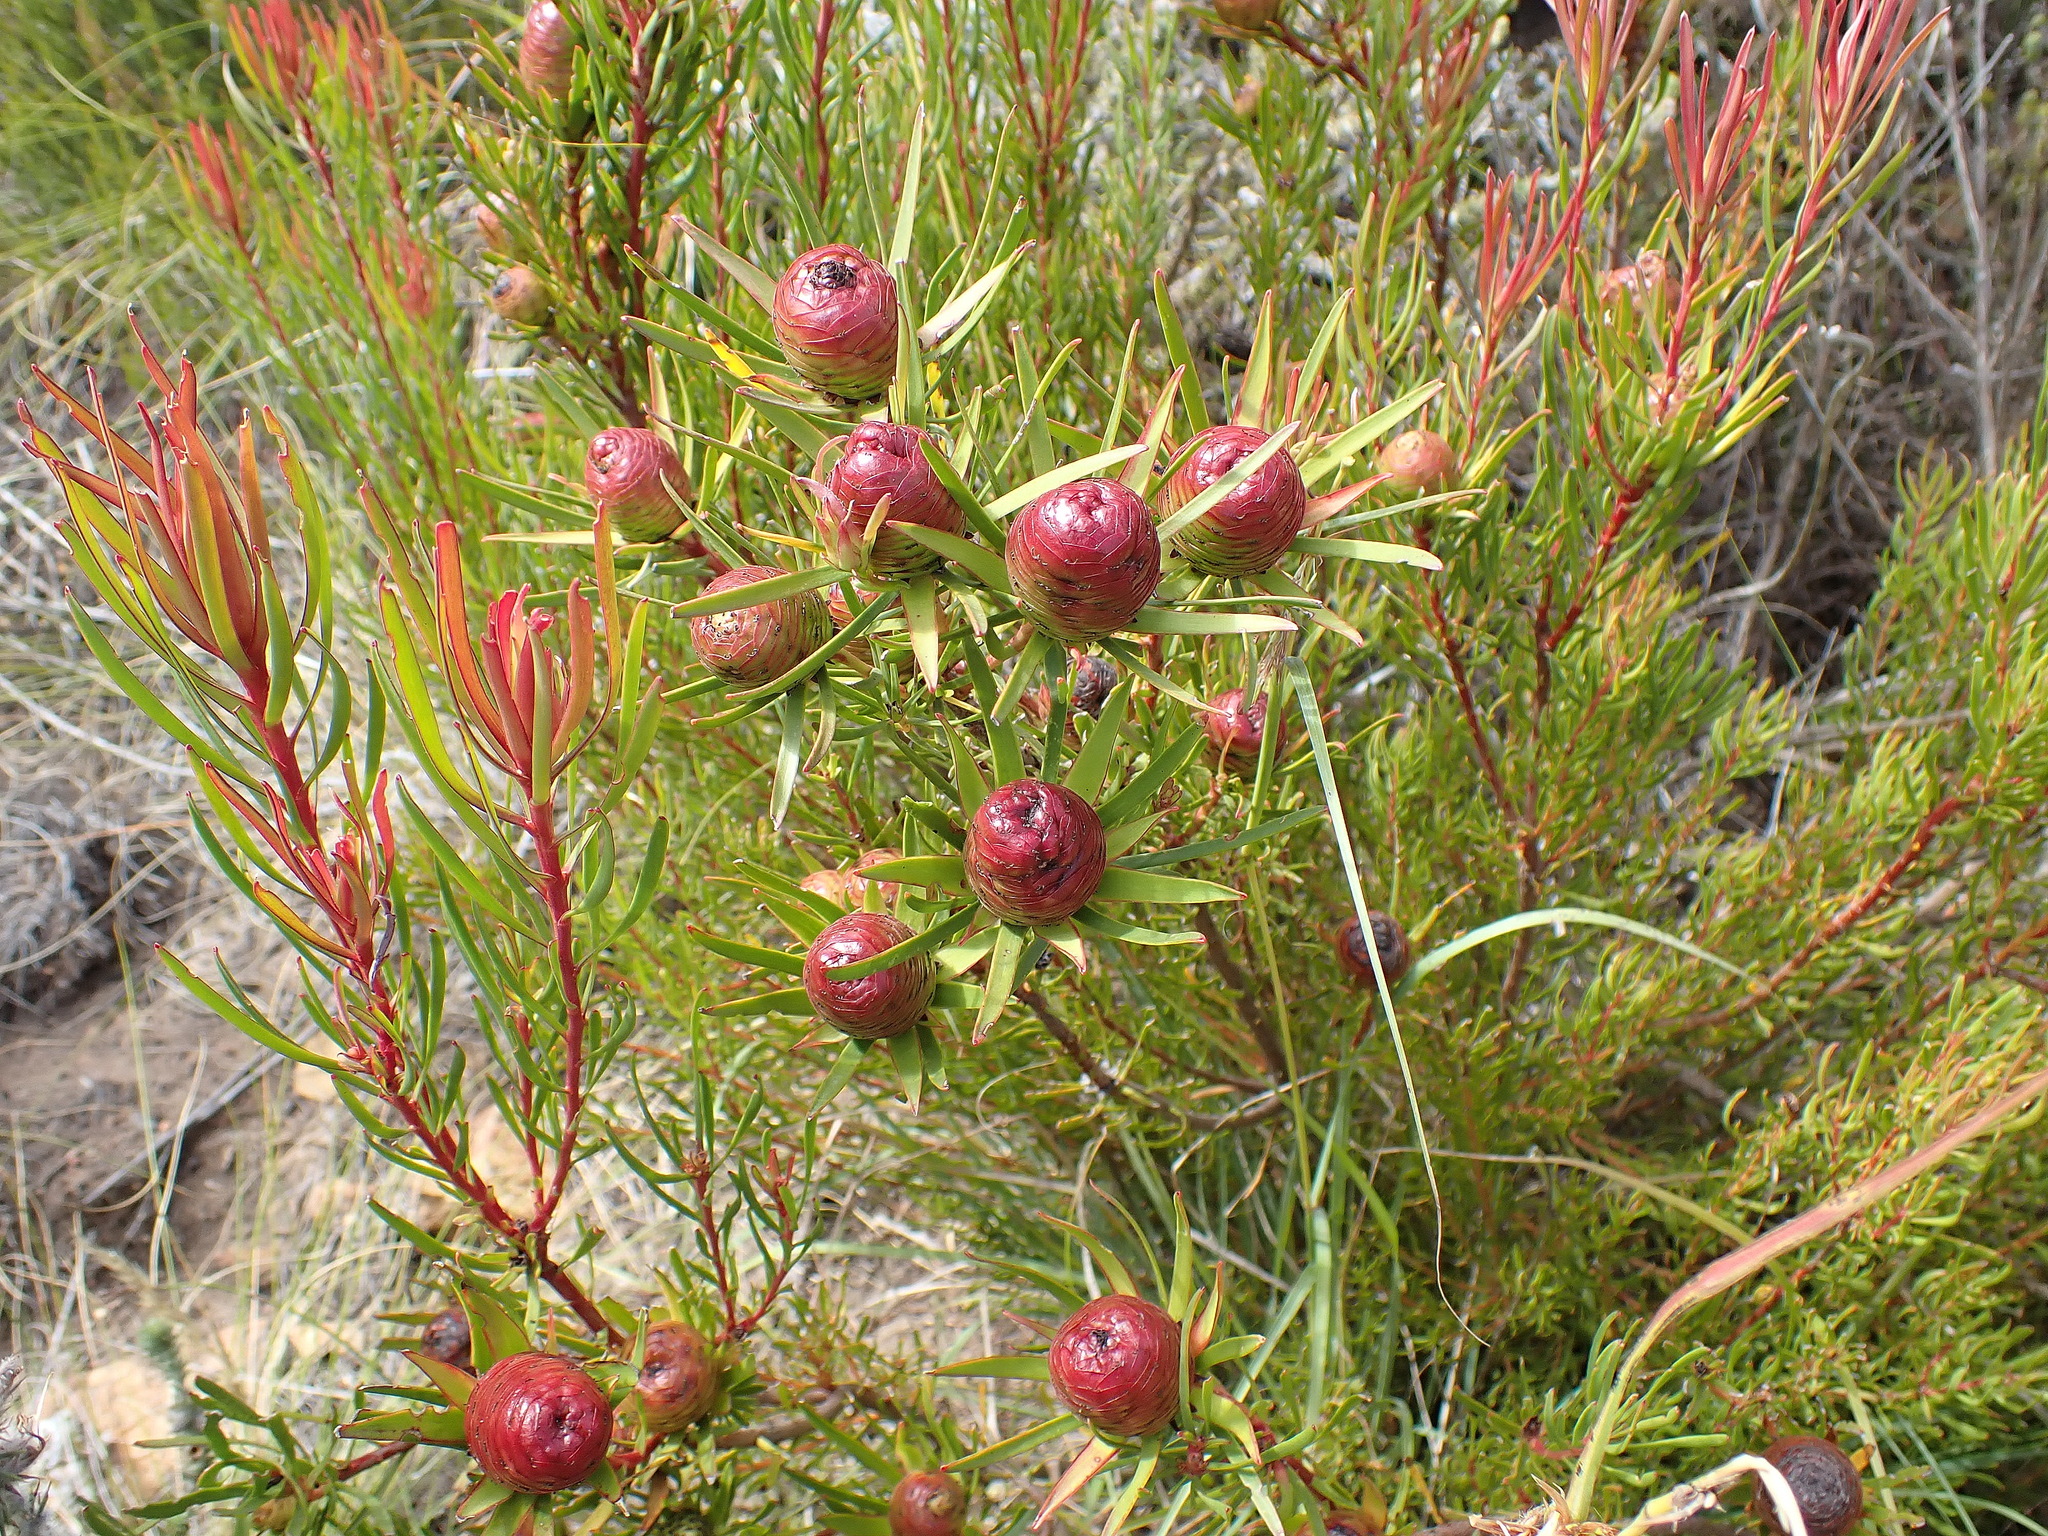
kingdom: Plantae
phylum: Tracheophyta
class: Magnoliopsida
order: Proteales
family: Proteaceae
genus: Leucadendron
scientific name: Leucadendron spissifolium
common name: Spear-leaf conebush
